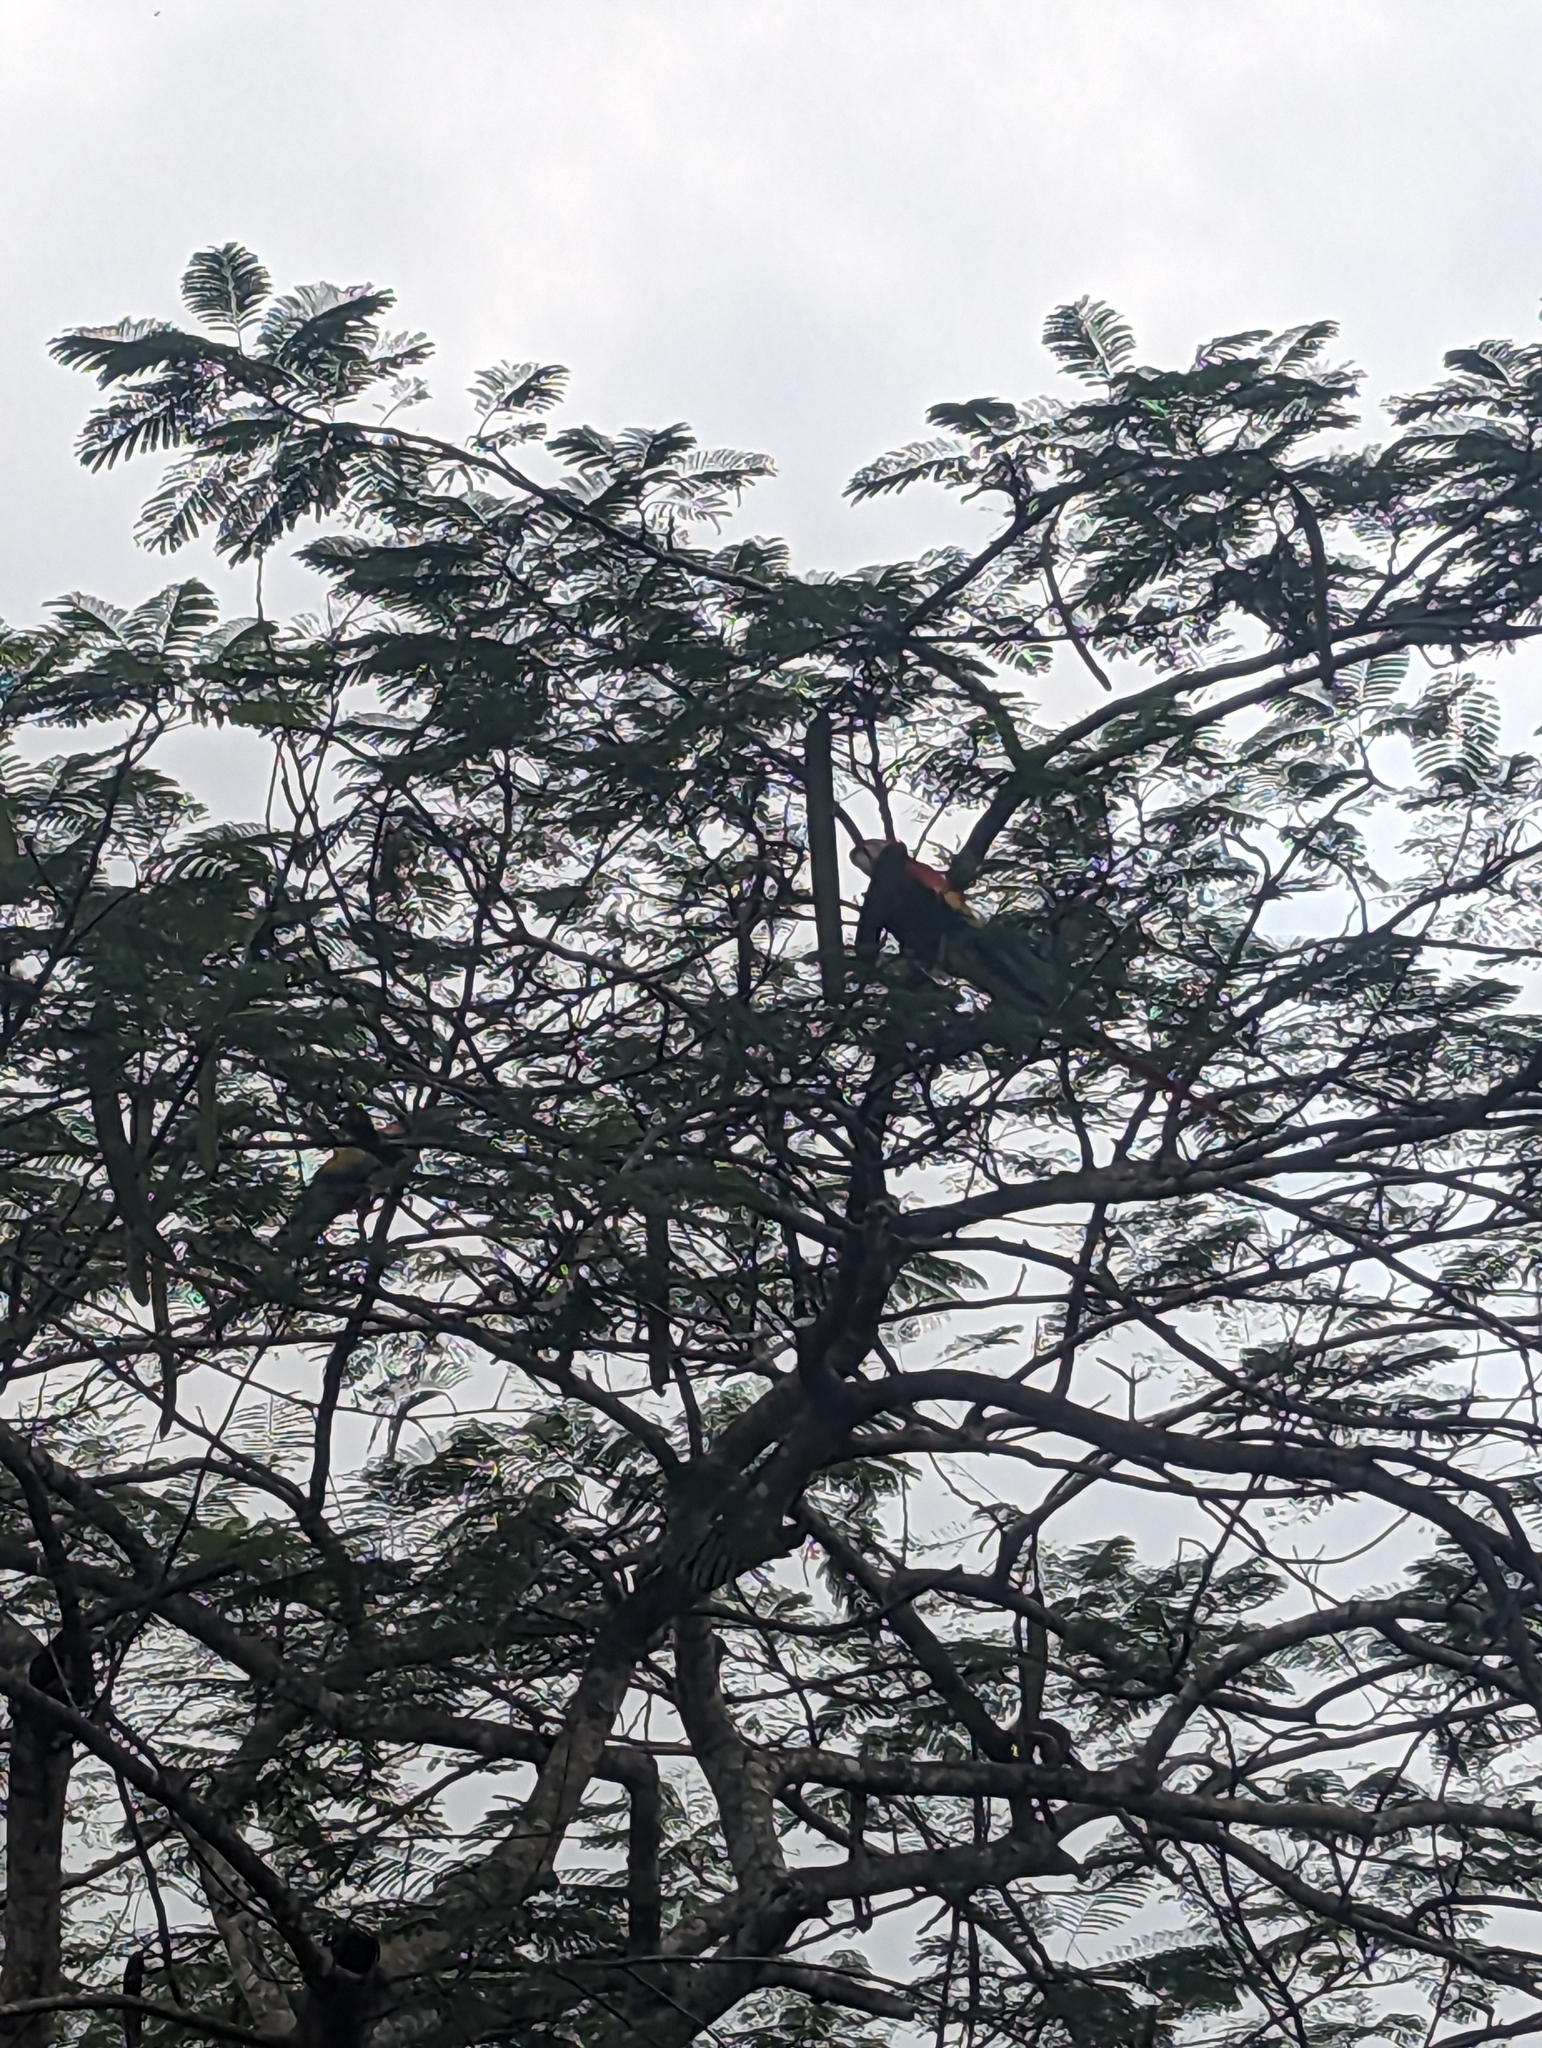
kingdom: Animalia
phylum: Chordata
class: Aves
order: Psittaciformes
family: Psittacidae
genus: Ara
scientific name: Ara macao
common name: Scarlet macaw
